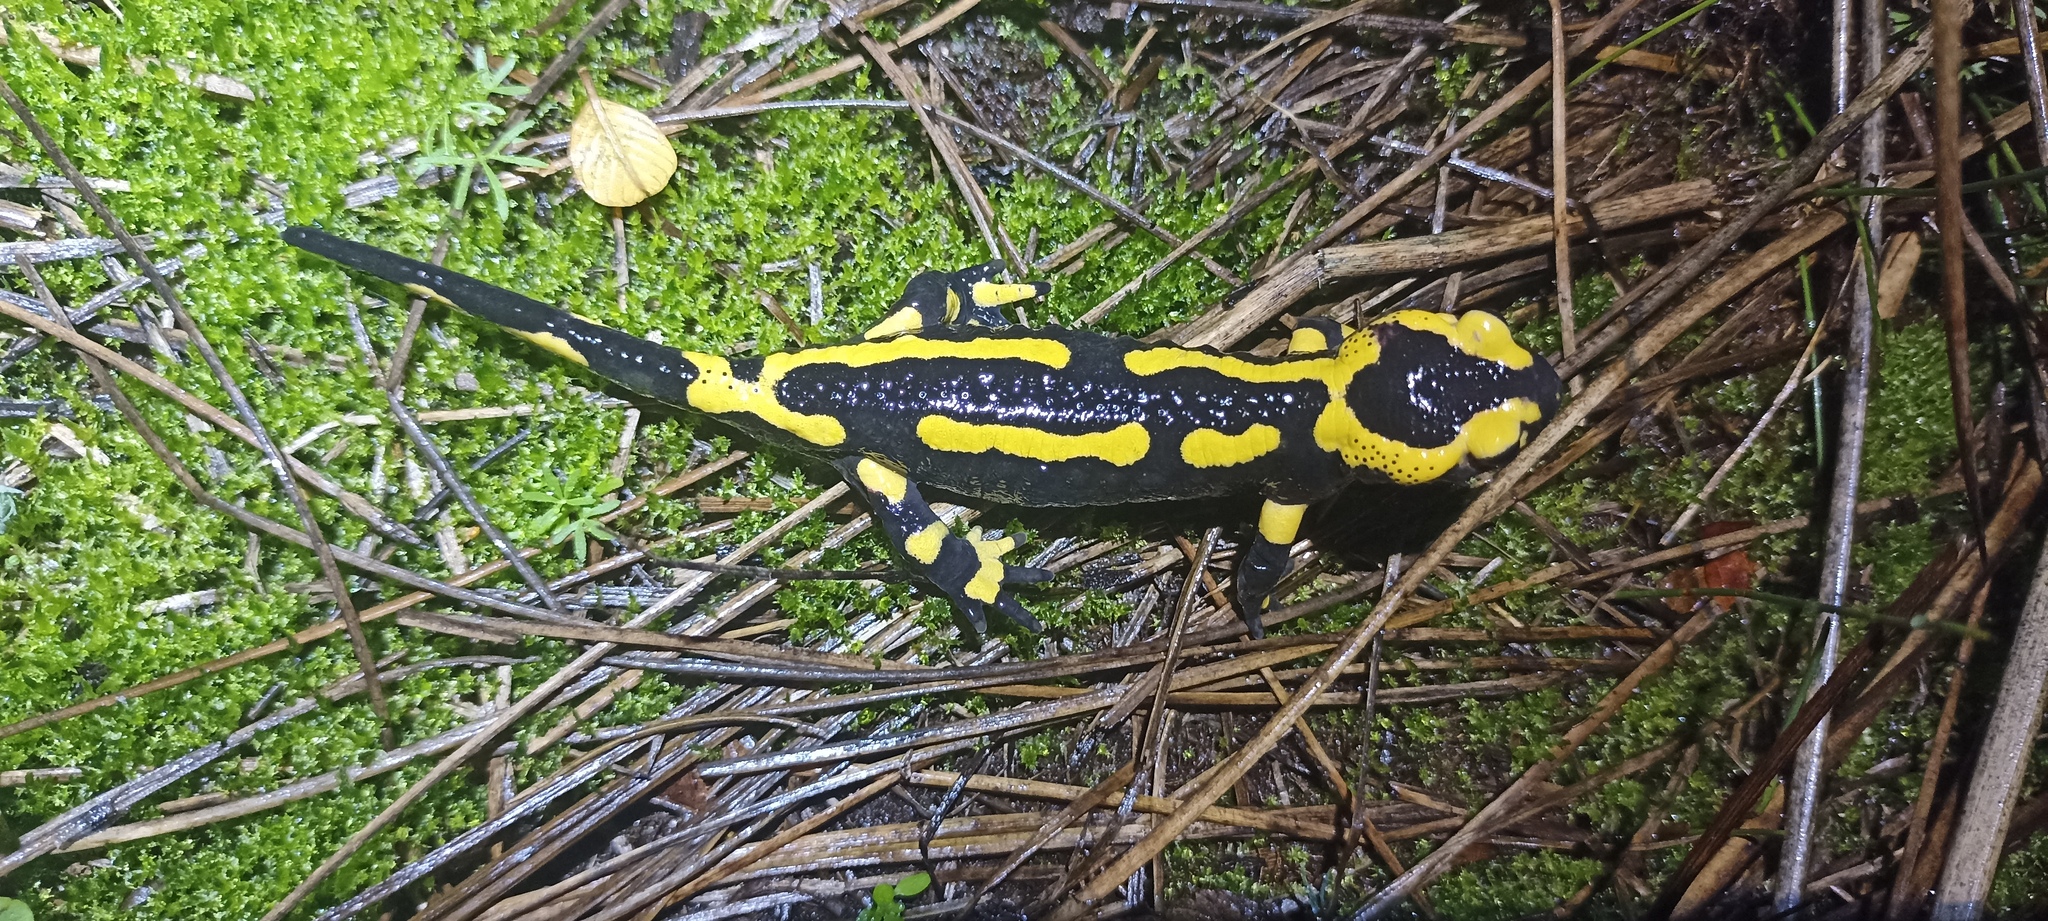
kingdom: Animalia
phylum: Chordata
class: Amphibia
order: Caudata
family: Salamandridae
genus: Salamandra
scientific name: Salamandra salamandra
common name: Fire salamander
